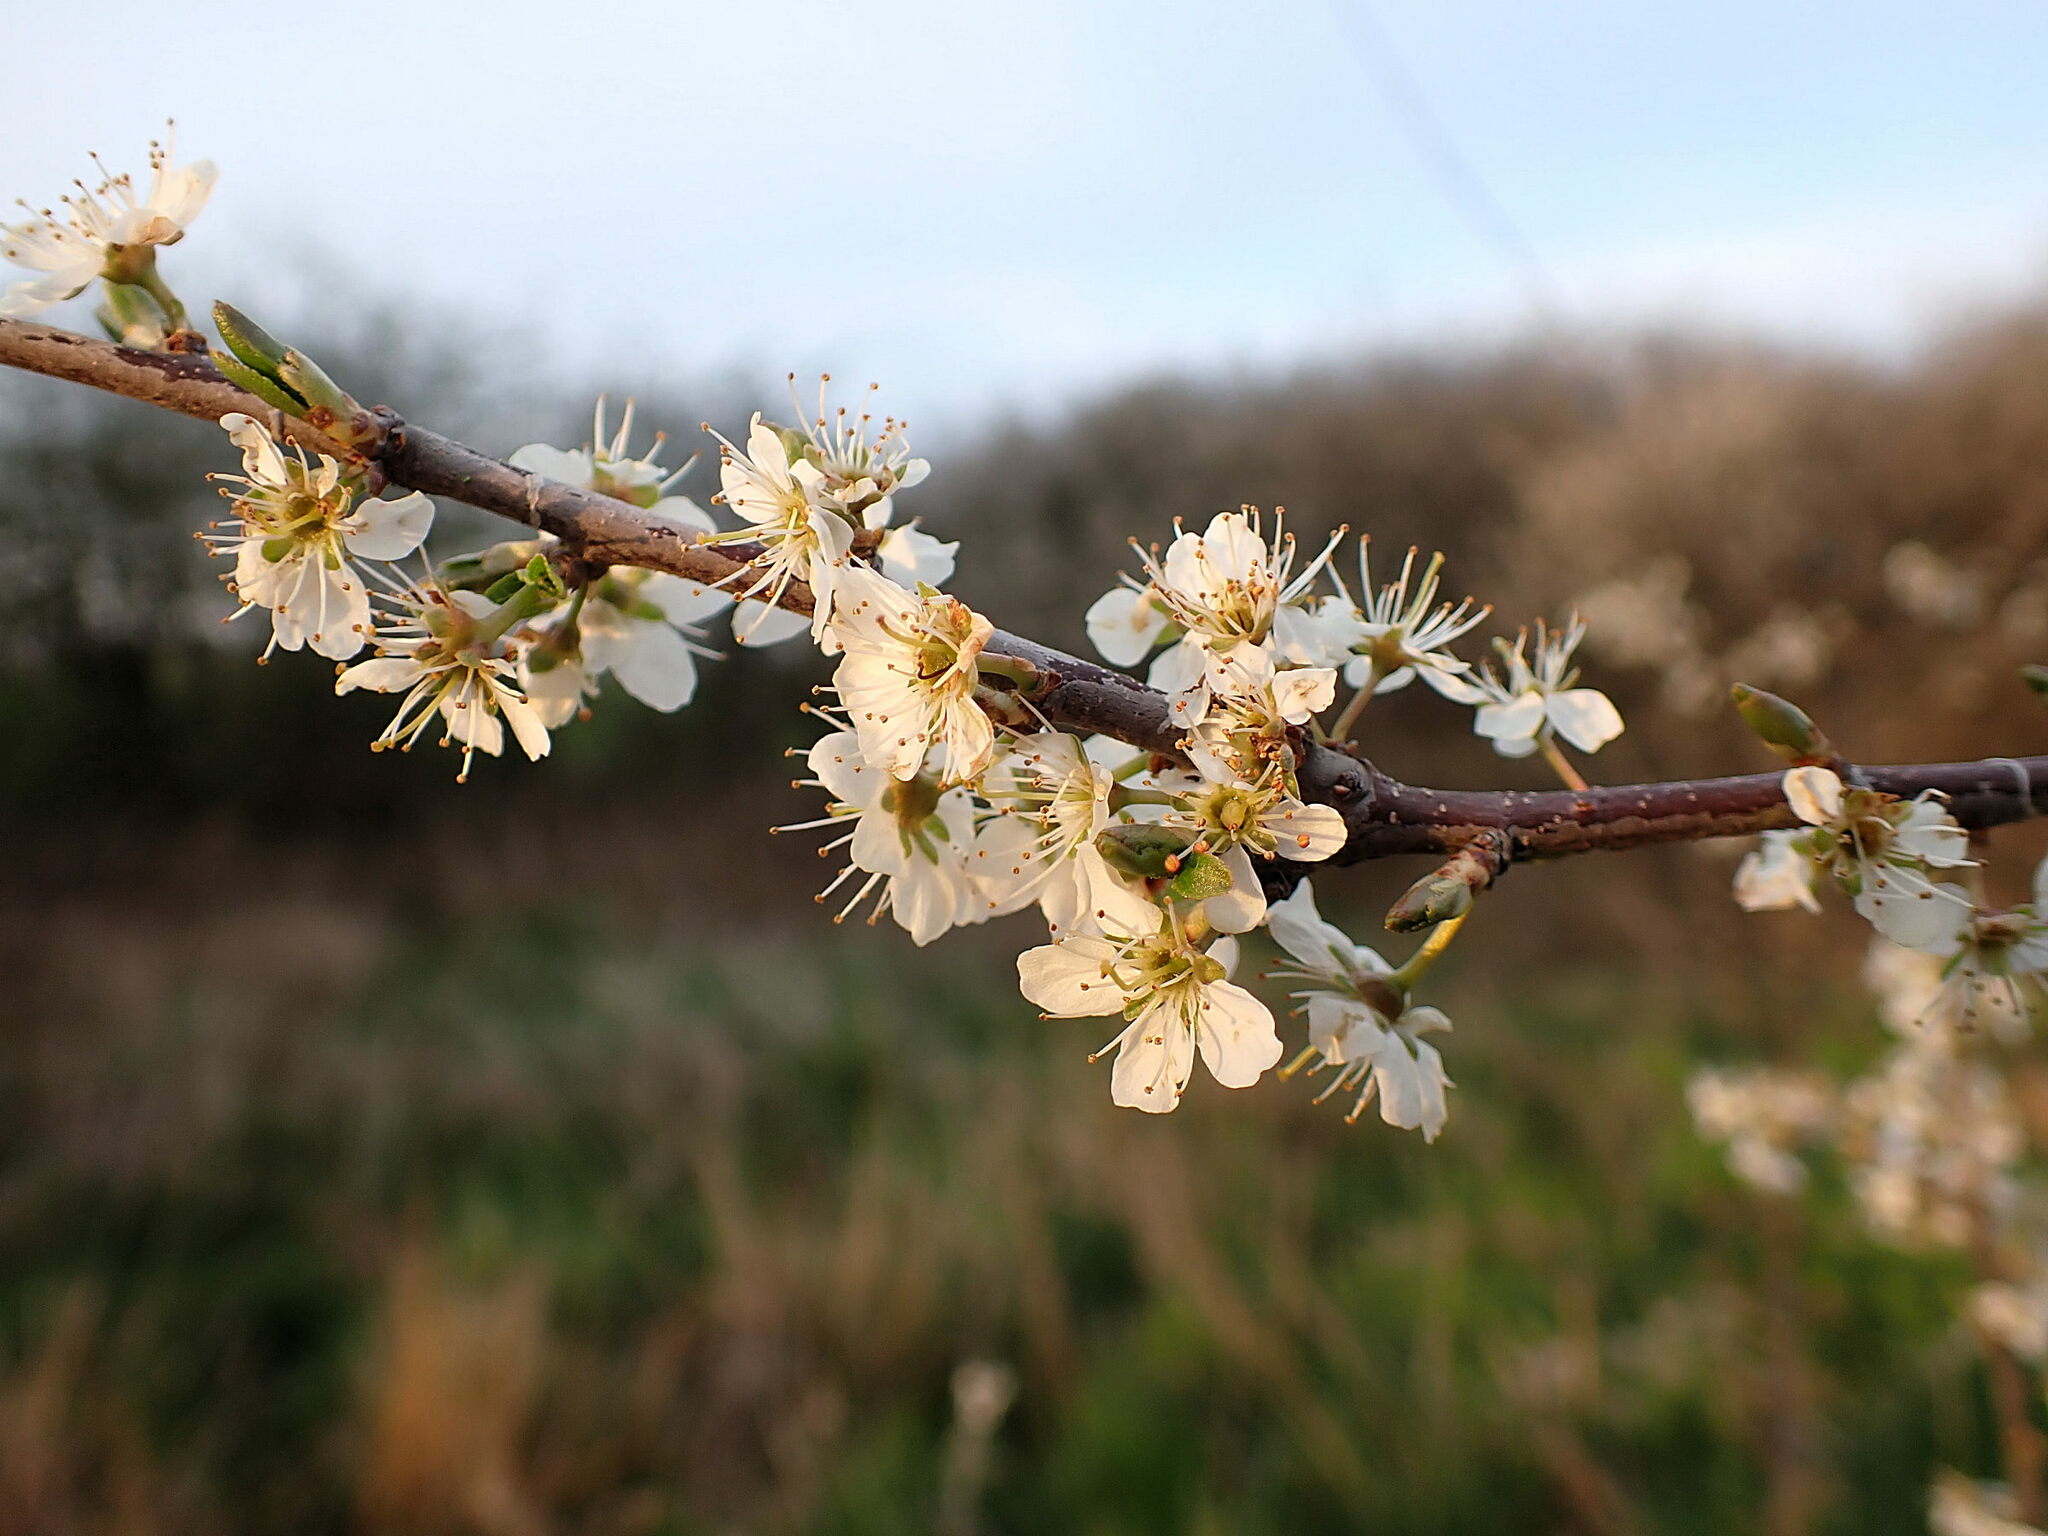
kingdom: Plantae
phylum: Tracheophyta
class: Magnoliopsida
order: Rosales
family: Rosaceae
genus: Prunus
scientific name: Prunus spinosa
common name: Blackthorn
